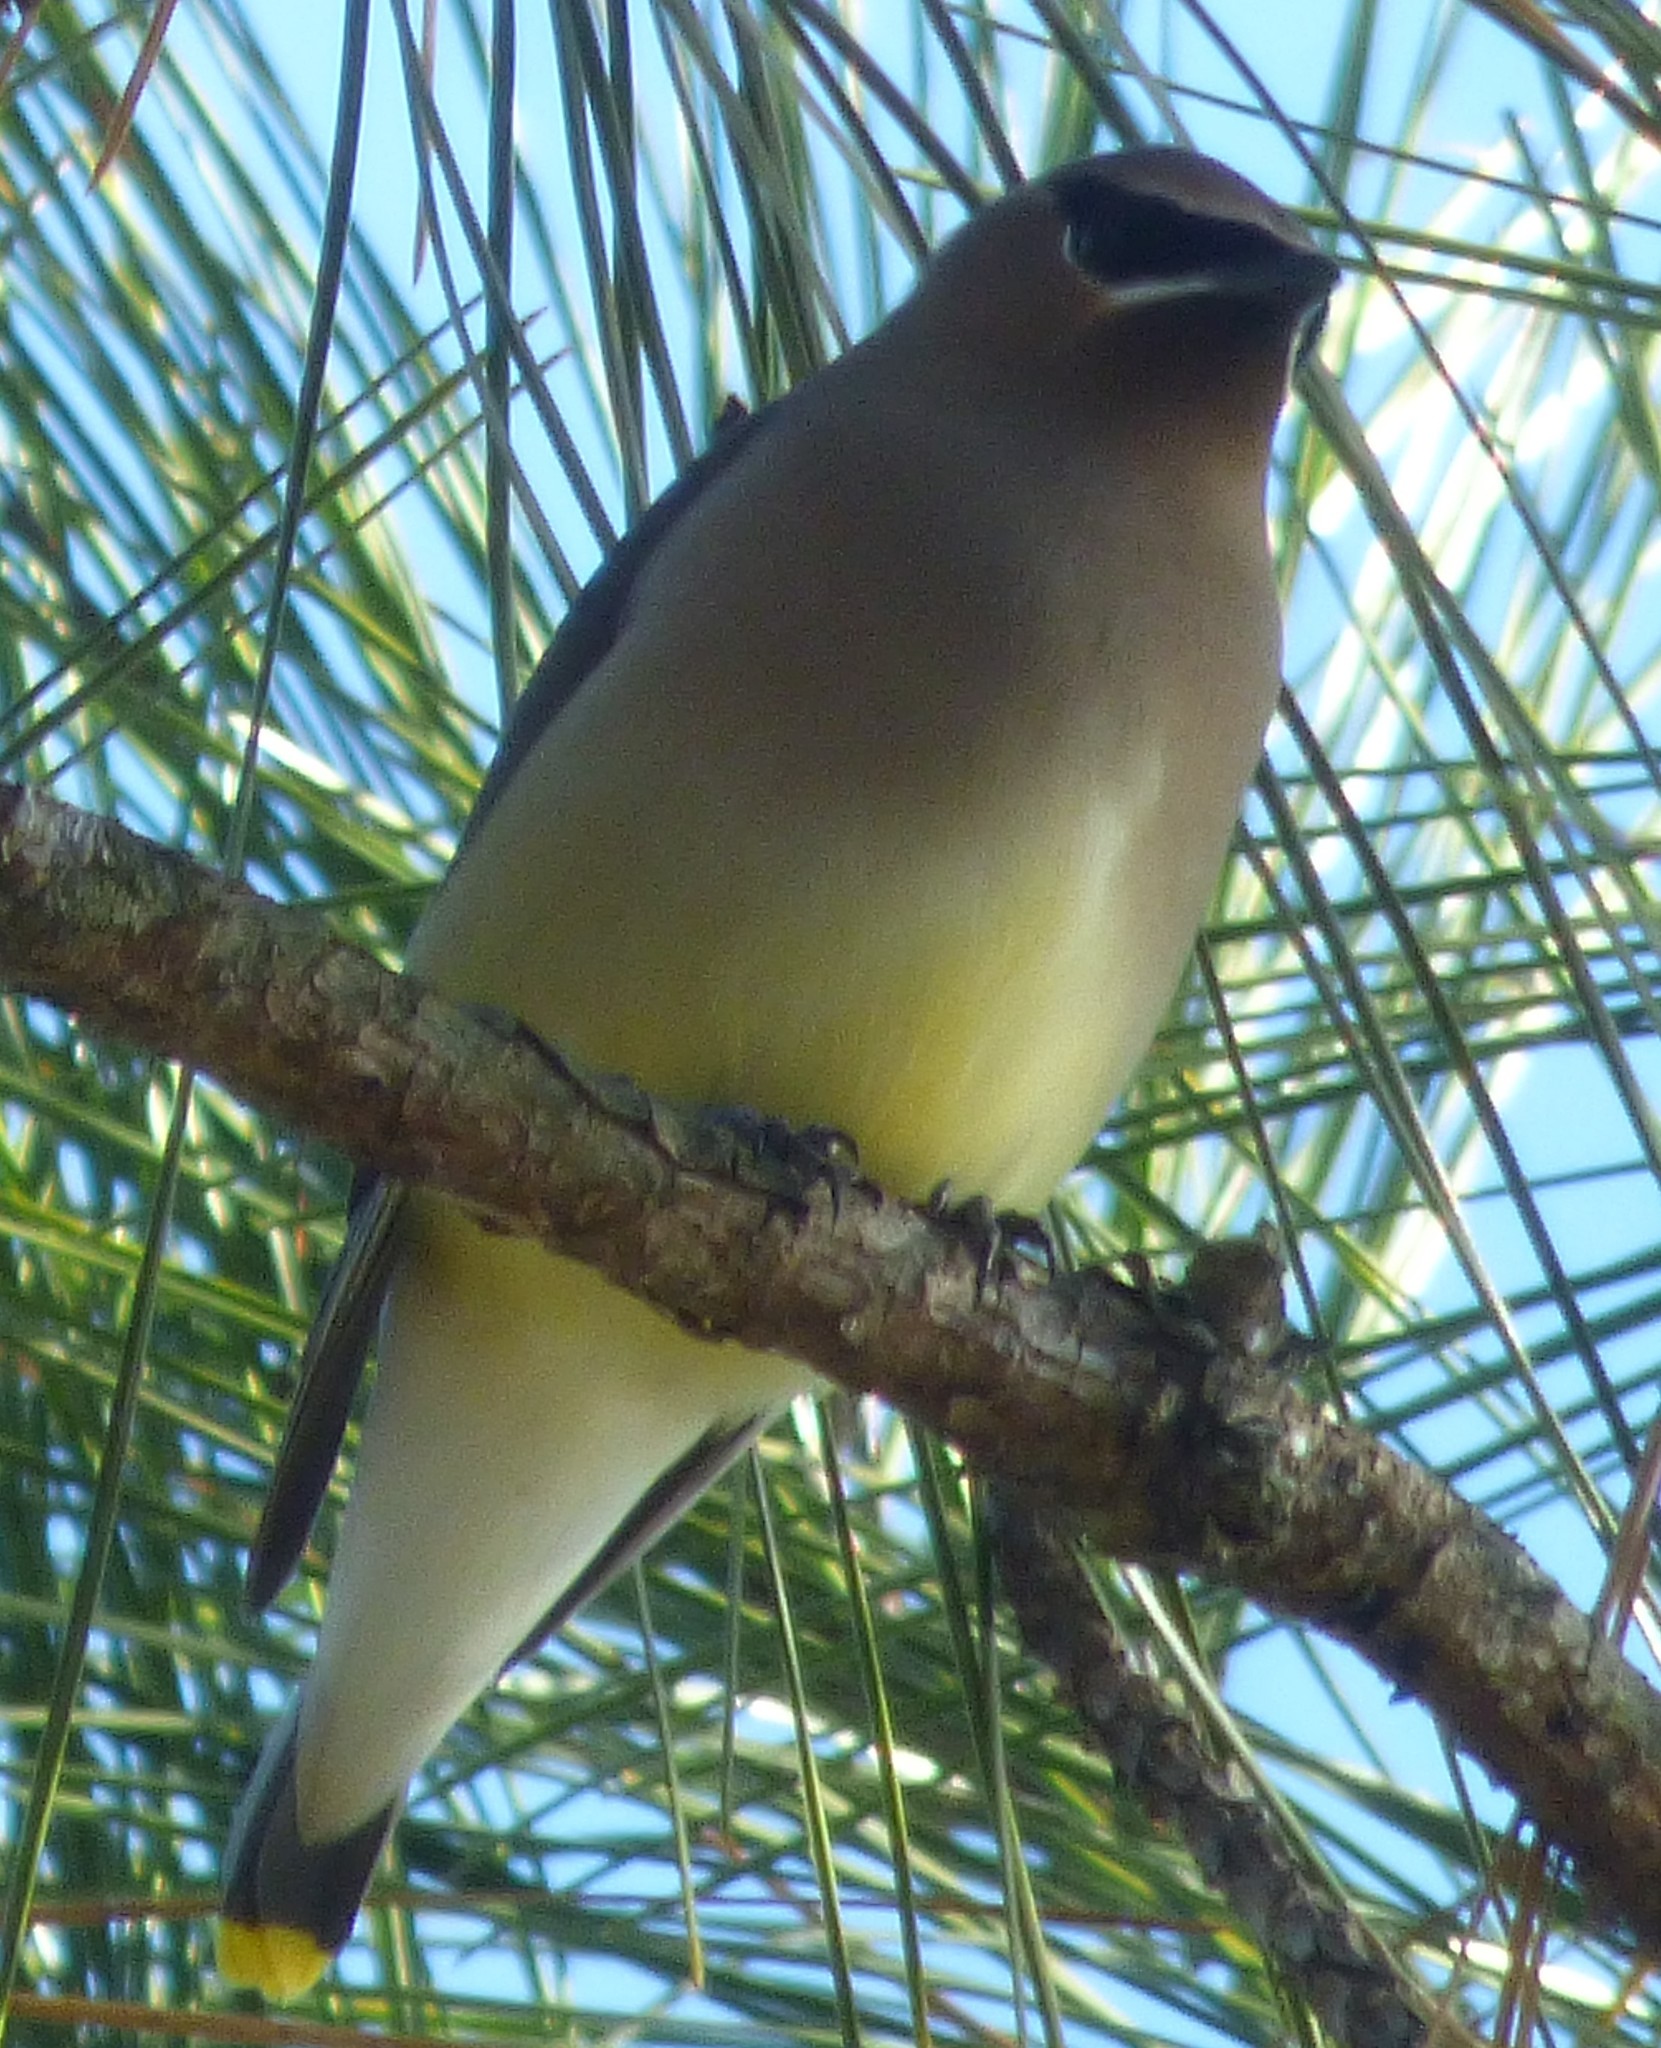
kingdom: Animalia
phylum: Chordata
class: Aves
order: Passeriformes
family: Bombycillidae
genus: Bombycilla
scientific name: Bombycilla cedrorum
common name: Cedar waxwing
